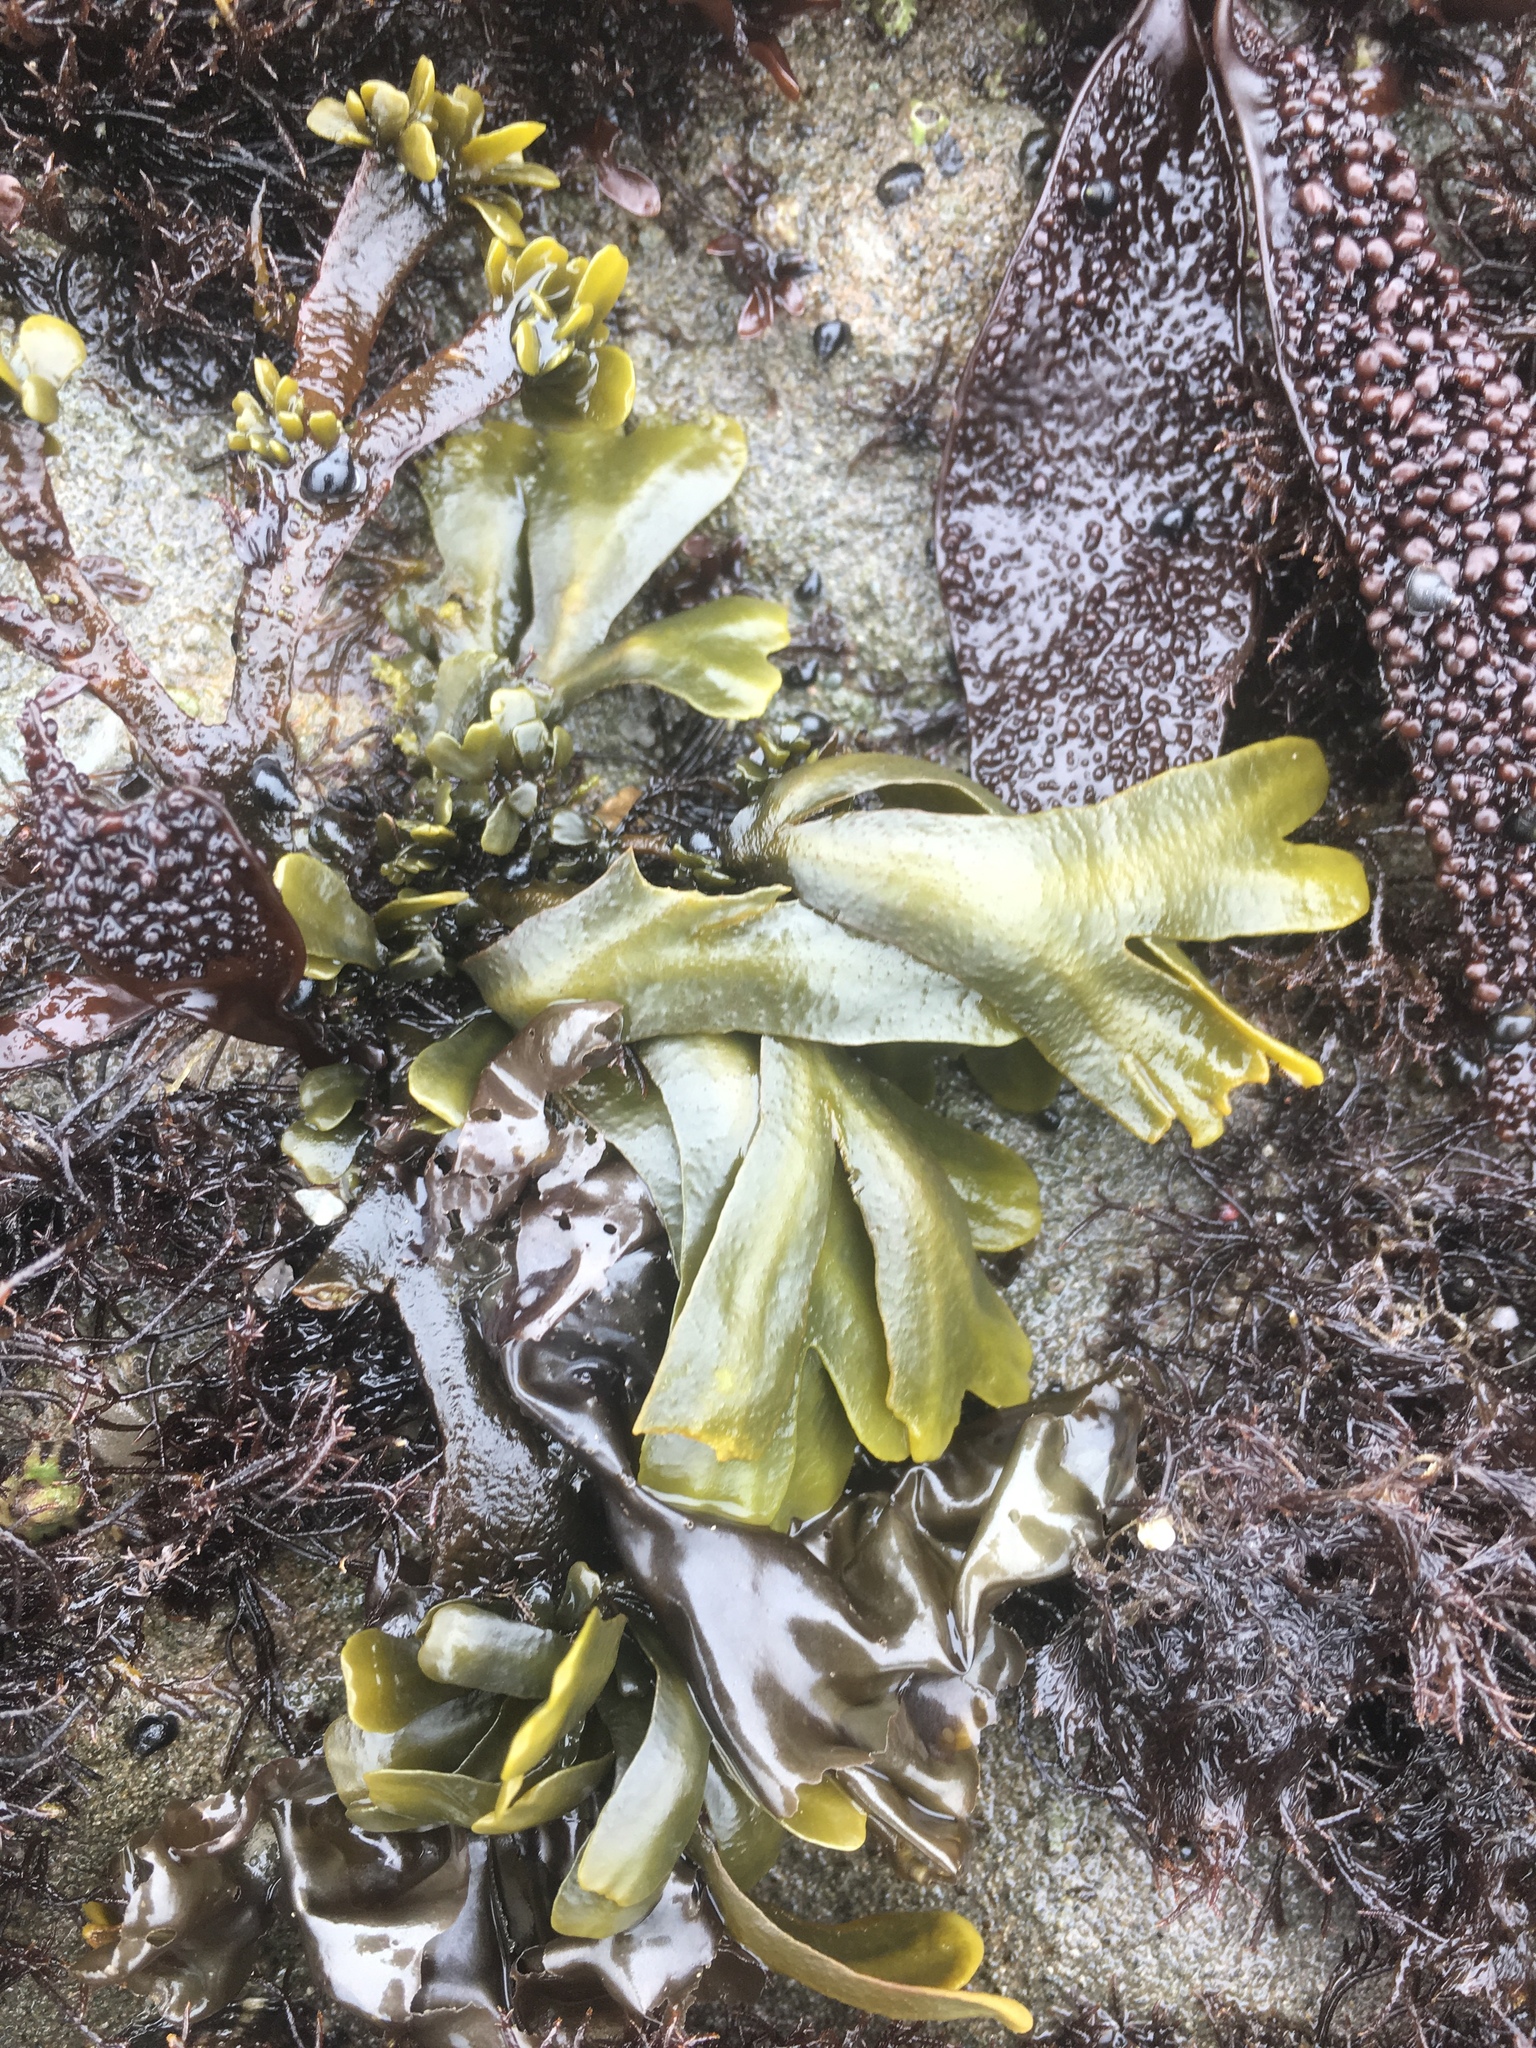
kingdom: Chromista
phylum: Ochrophyta
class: Phaeophyceae
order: Fucales
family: Fucaceae
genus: Fucus
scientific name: Fucus distichus
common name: Rockweed
